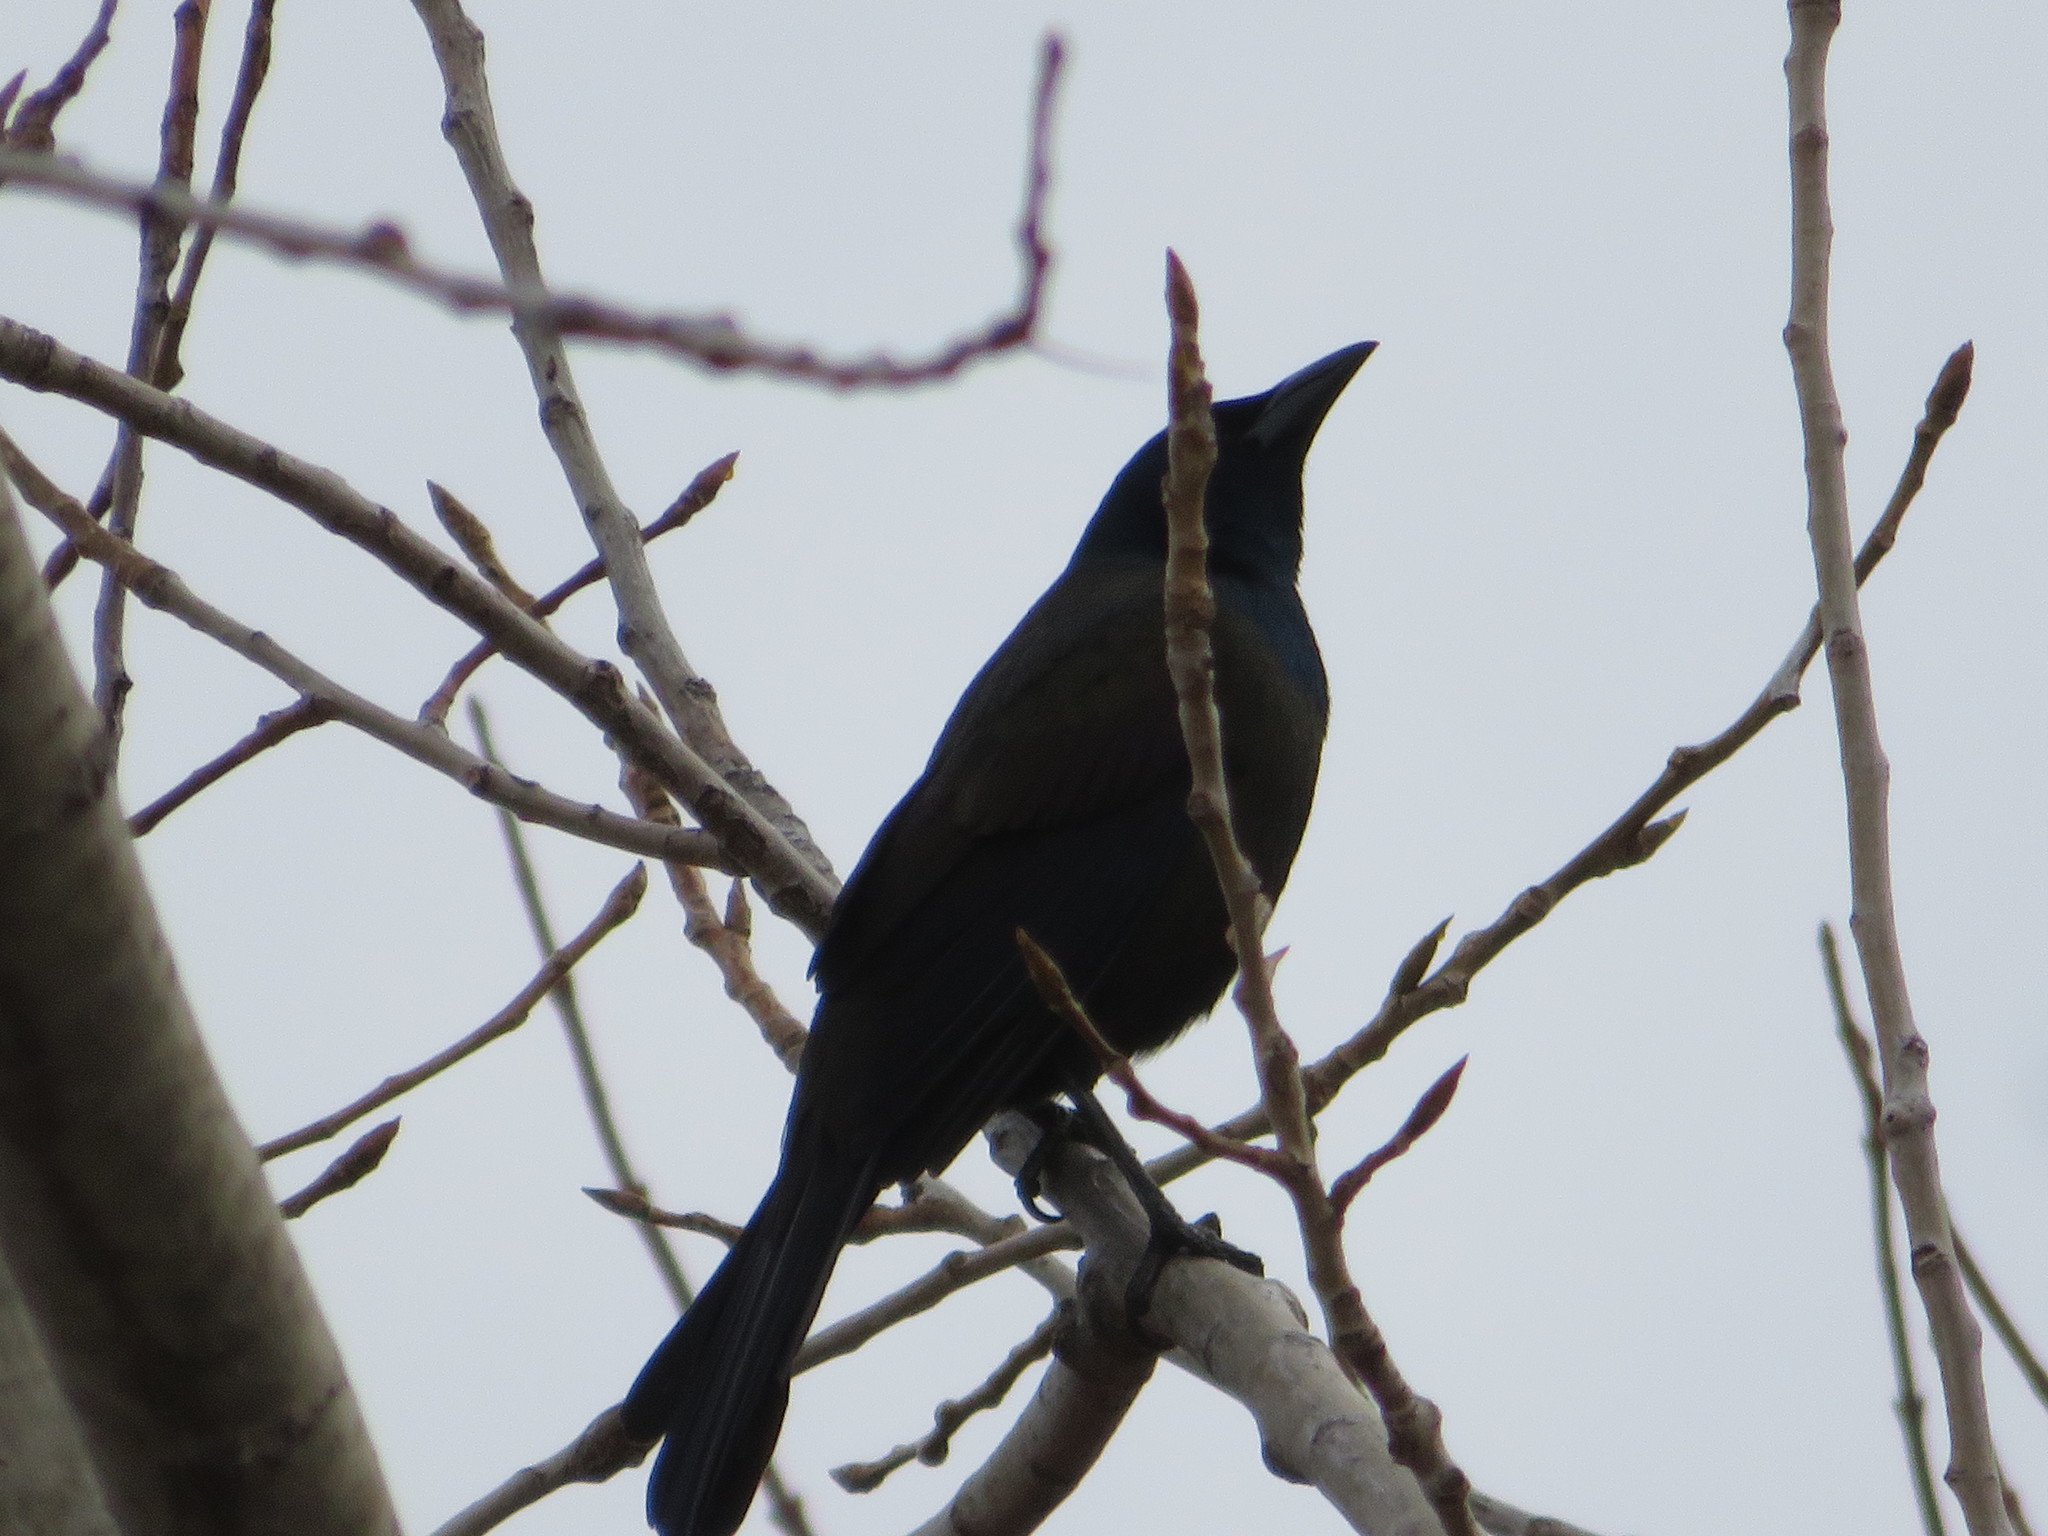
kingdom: Animalia
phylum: Chordata
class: Aves
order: Passeriformes
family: Icteridae
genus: Quiscalus
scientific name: Quiscalus quiscula
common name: Common grackle
